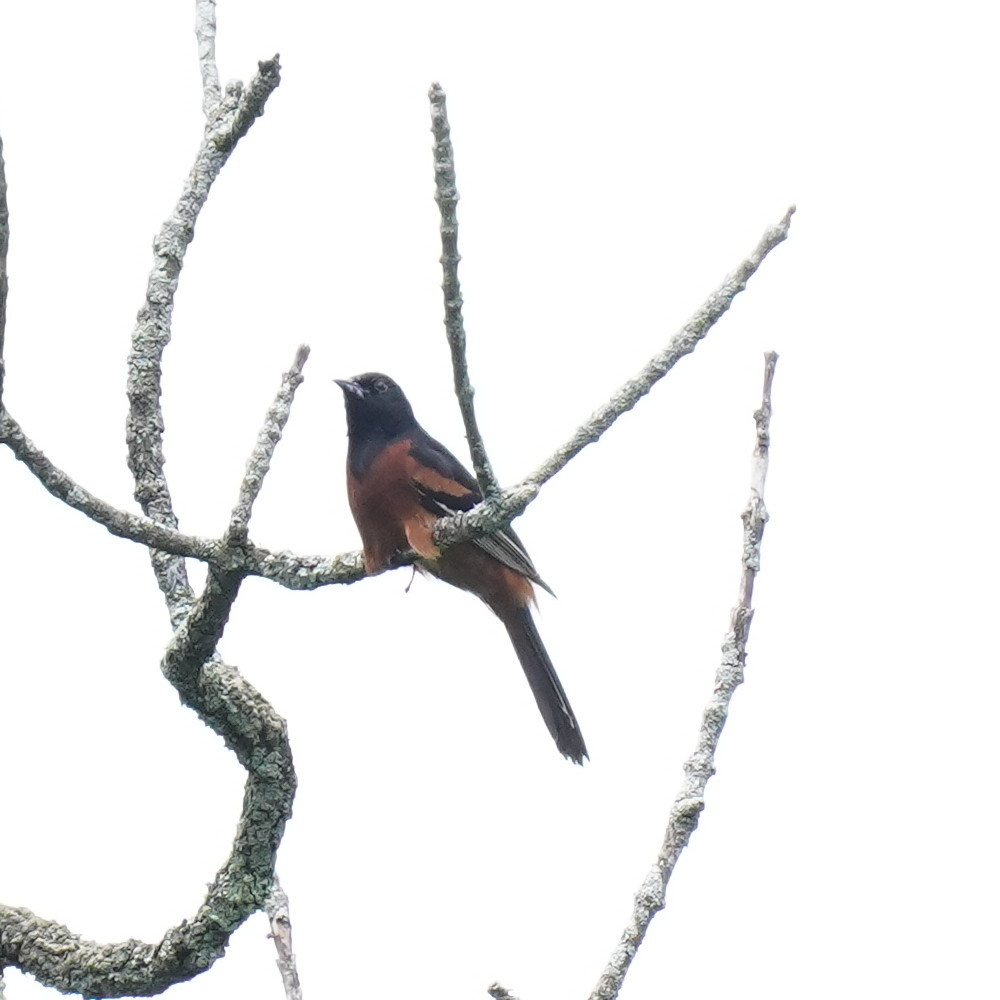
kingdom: Animalia
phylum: Chordata
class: Aves
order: Passeriformes
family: Icteridae
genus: Icterus
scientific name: Icterus spurius
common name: Orchard oriole
